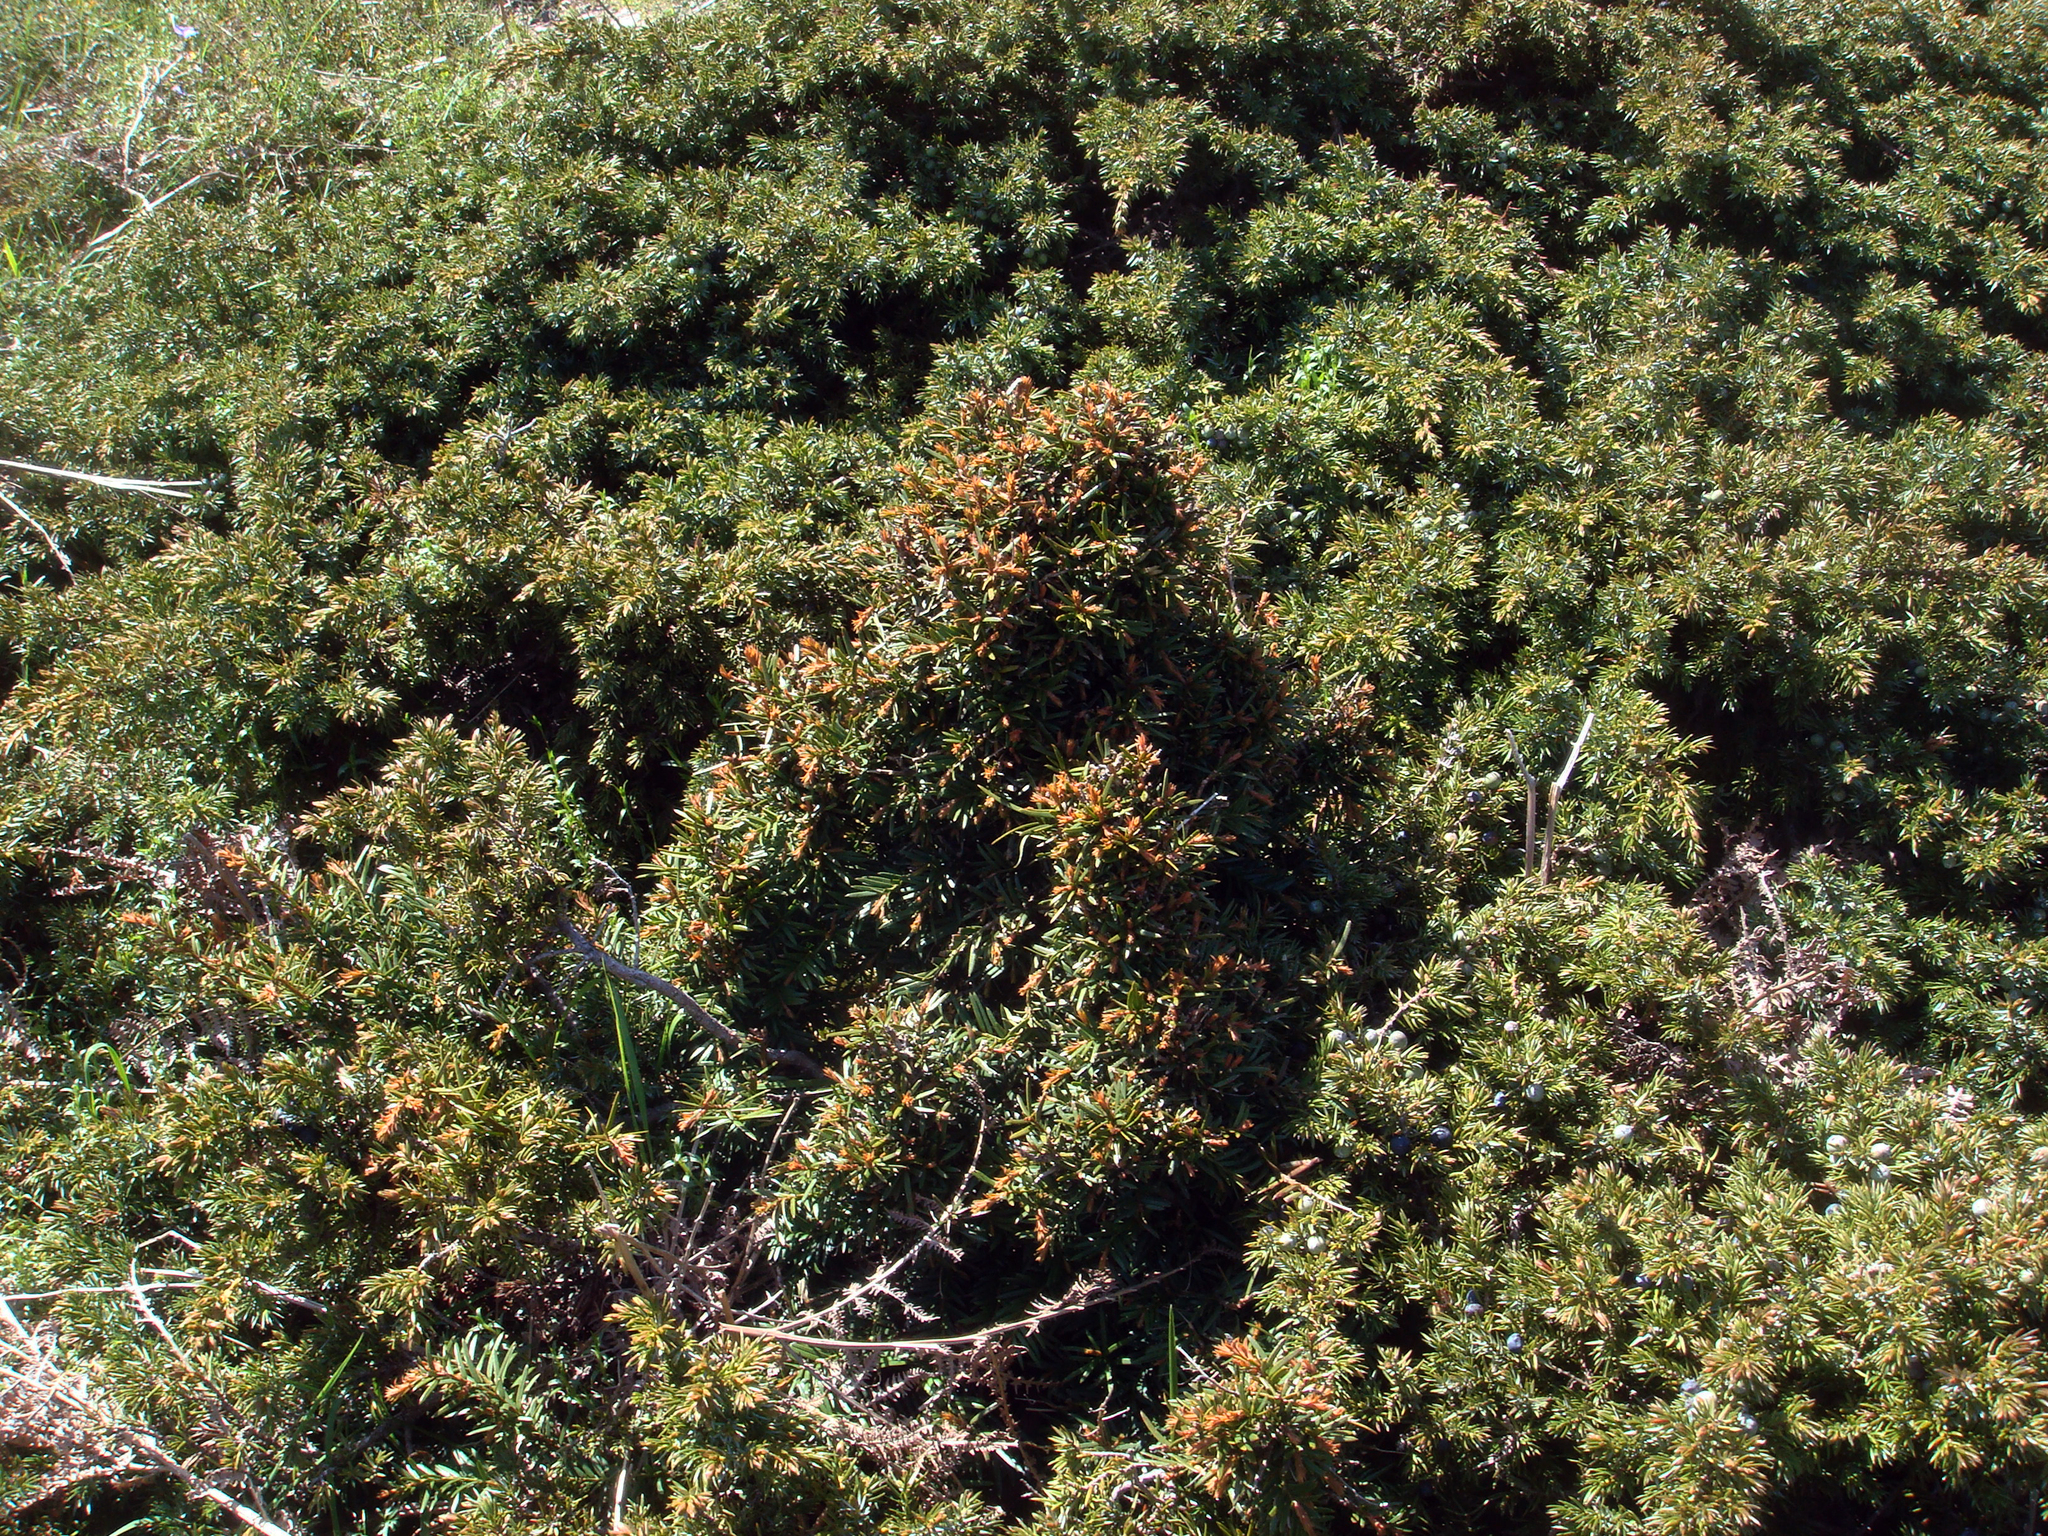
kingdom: Plantae
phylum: Tracheophyta
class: Pinopsida
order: Pinales
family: Cupressaceae
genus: Juniperus
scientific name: Juniperus communis
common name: Common juniper
